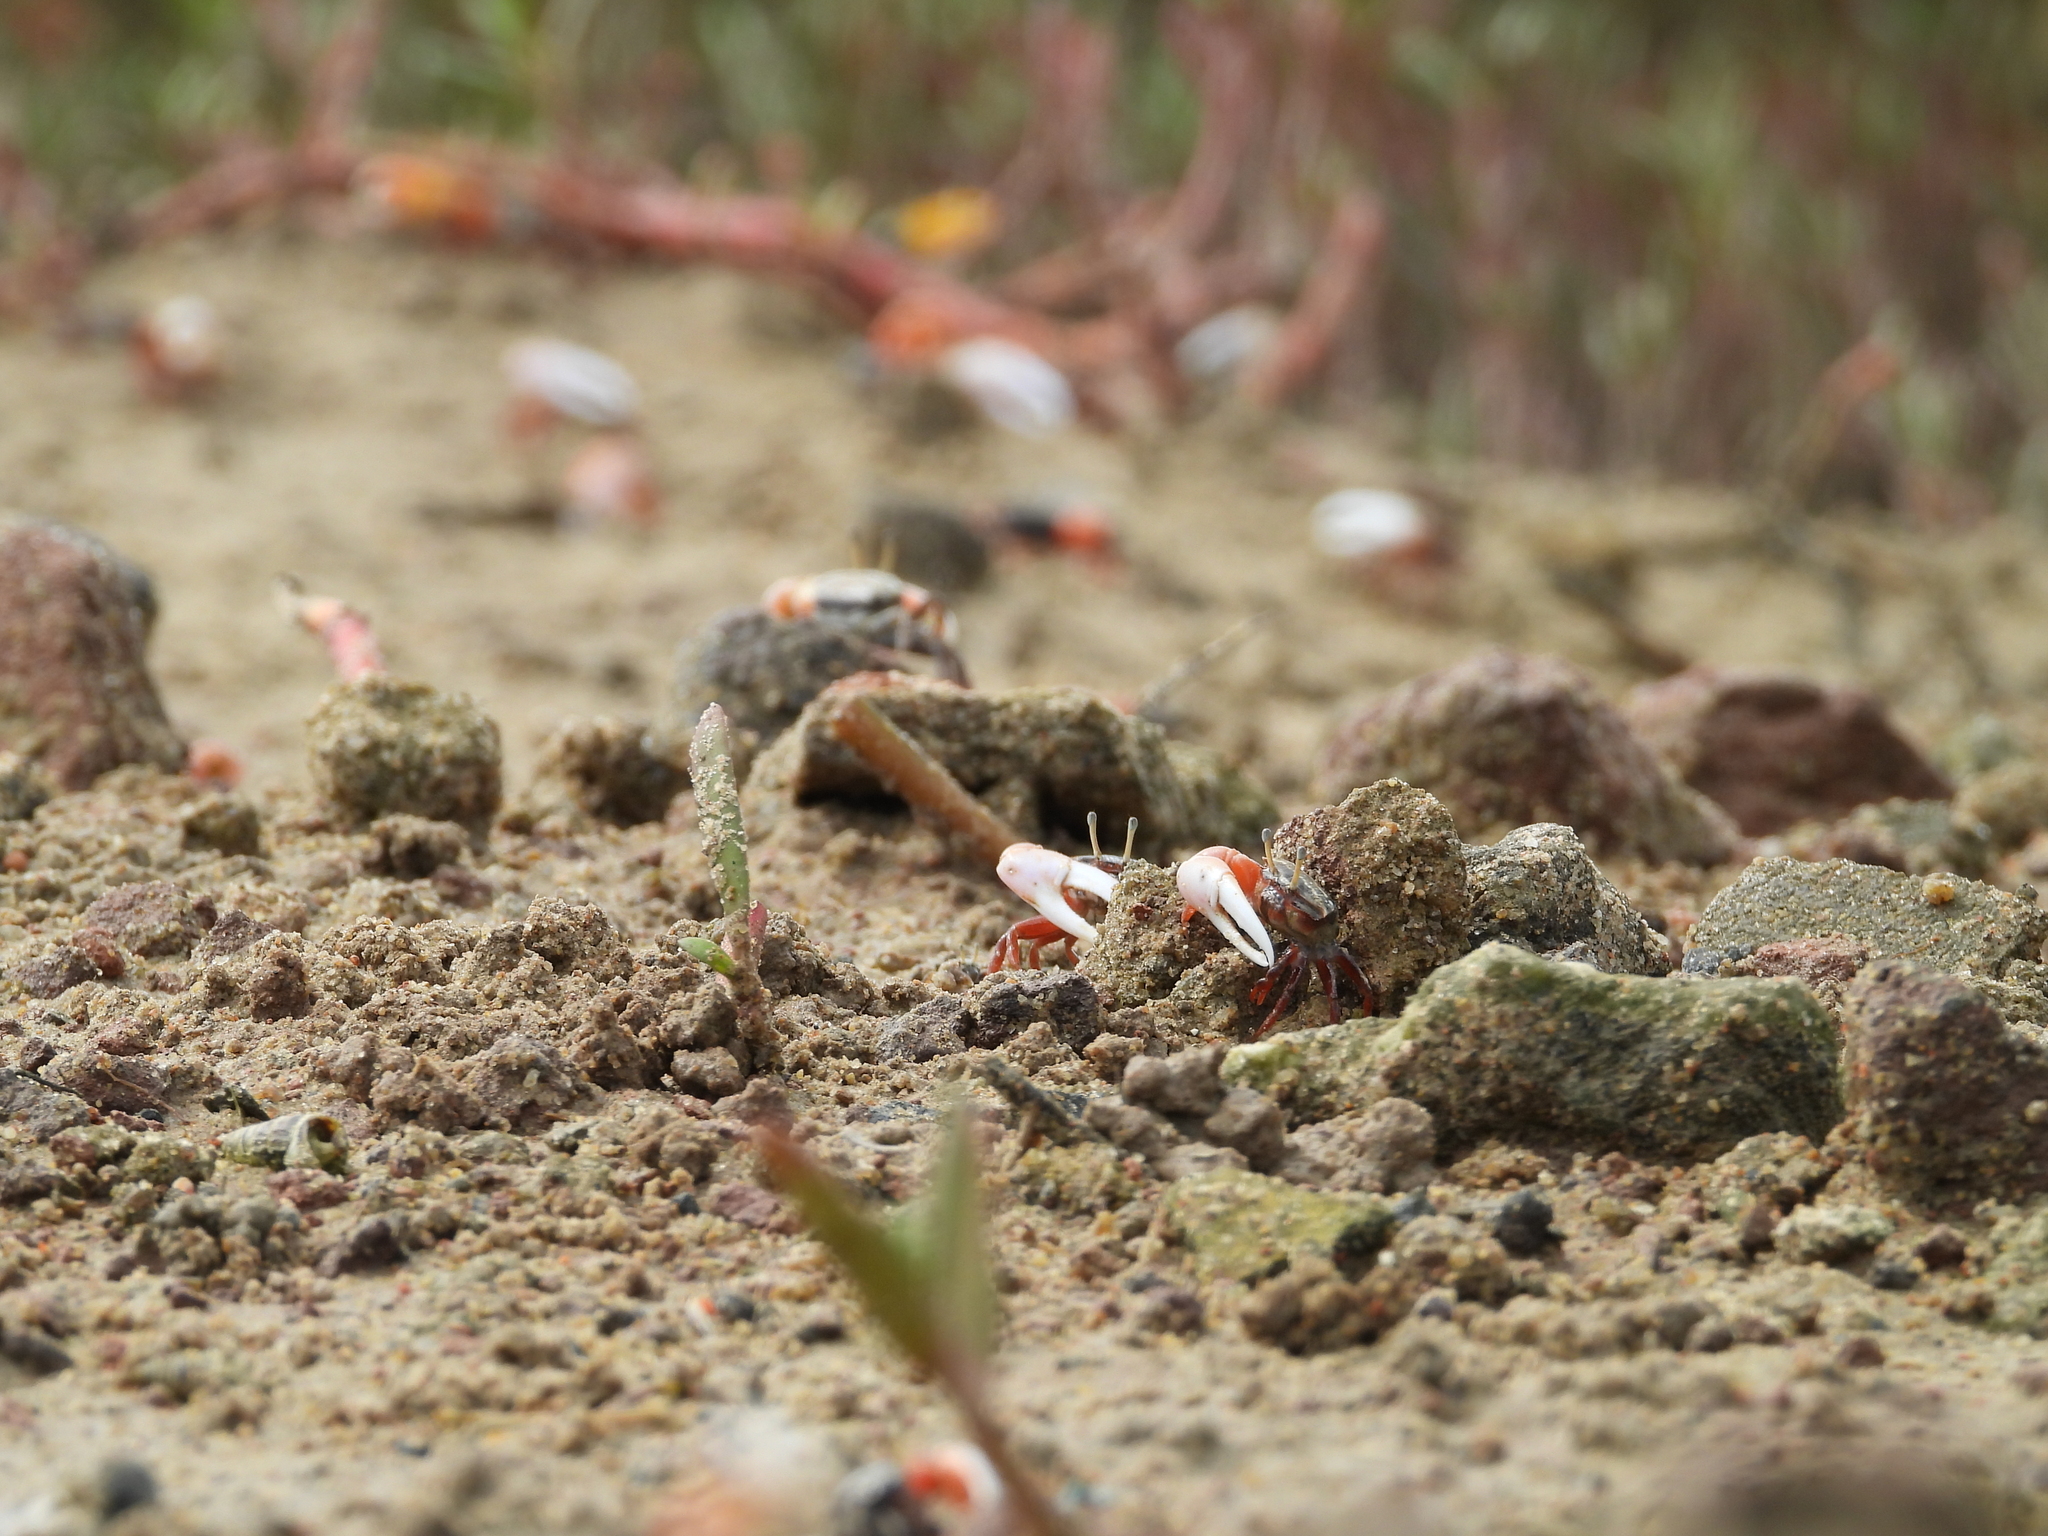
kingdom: Animalia
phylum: Arthropoda
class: Malacostraca
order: Decapoda
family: Ocypodidae
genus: Austruca
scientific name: Austruca annulipes
